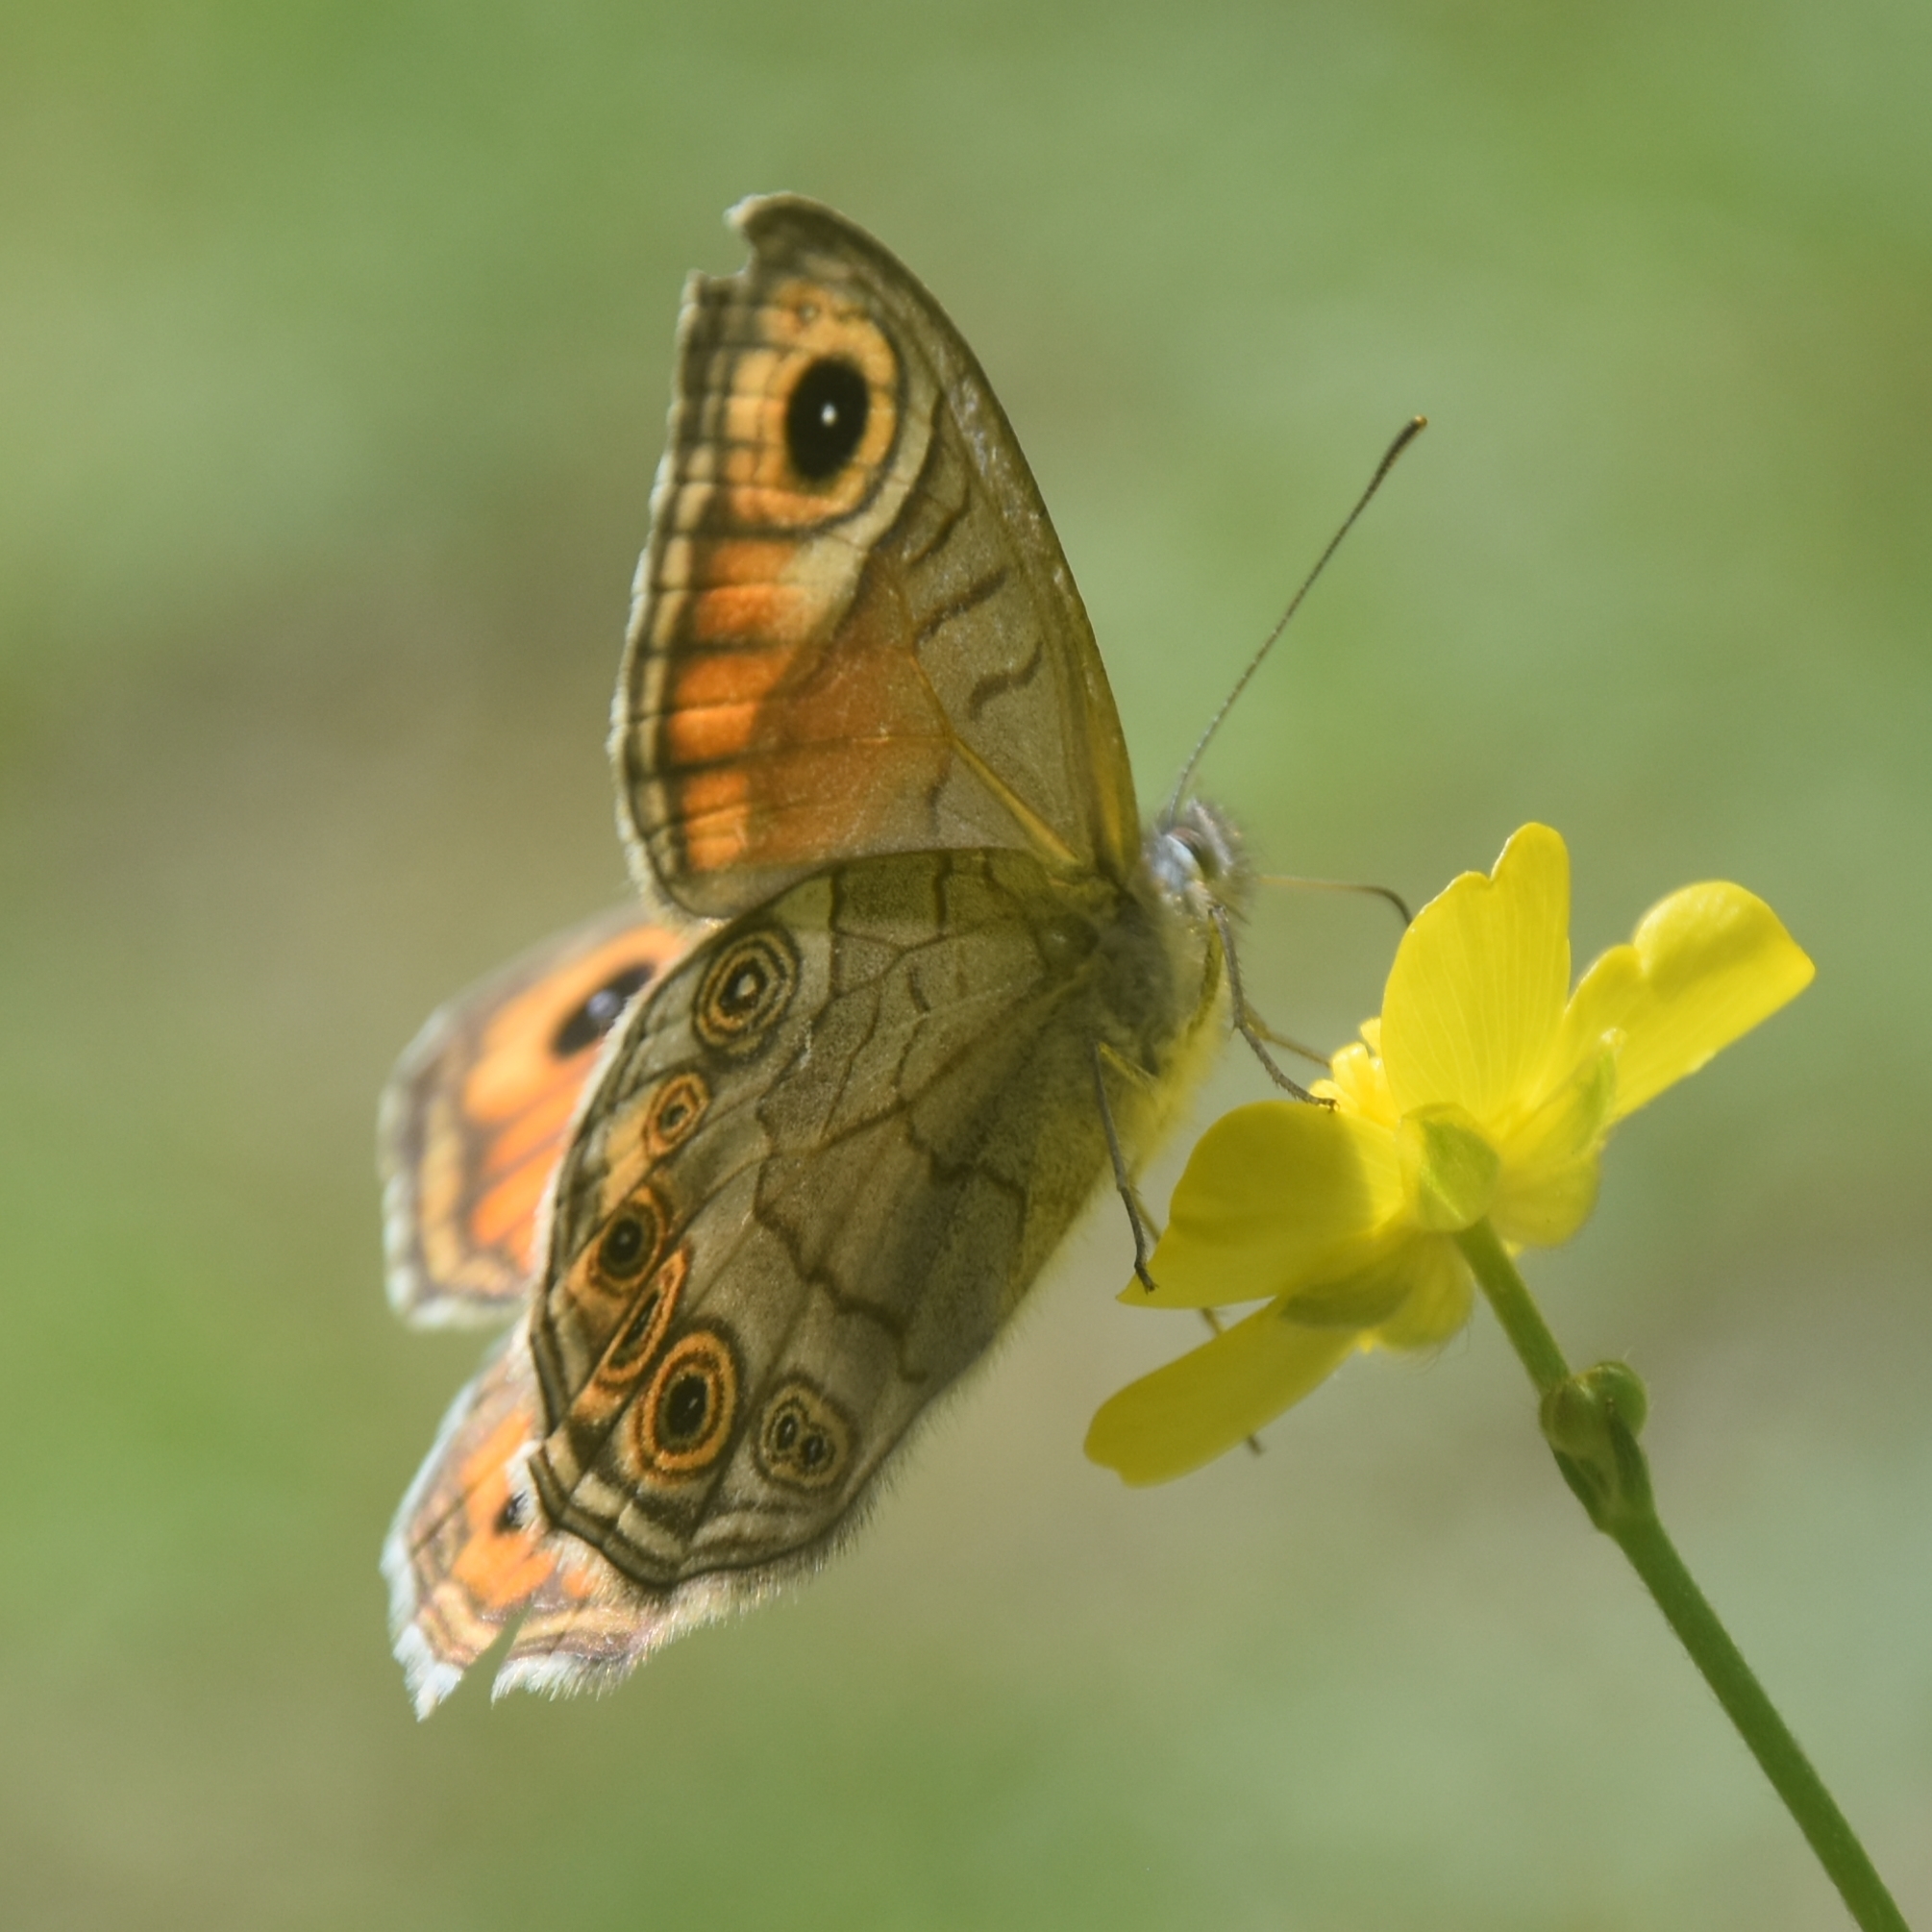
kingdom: Animalia
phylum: Arthropoda
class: Insecta
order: Lepidoptera
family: Nymphalidae
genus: Pararge
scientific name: Pararge Lasiommata schakra
